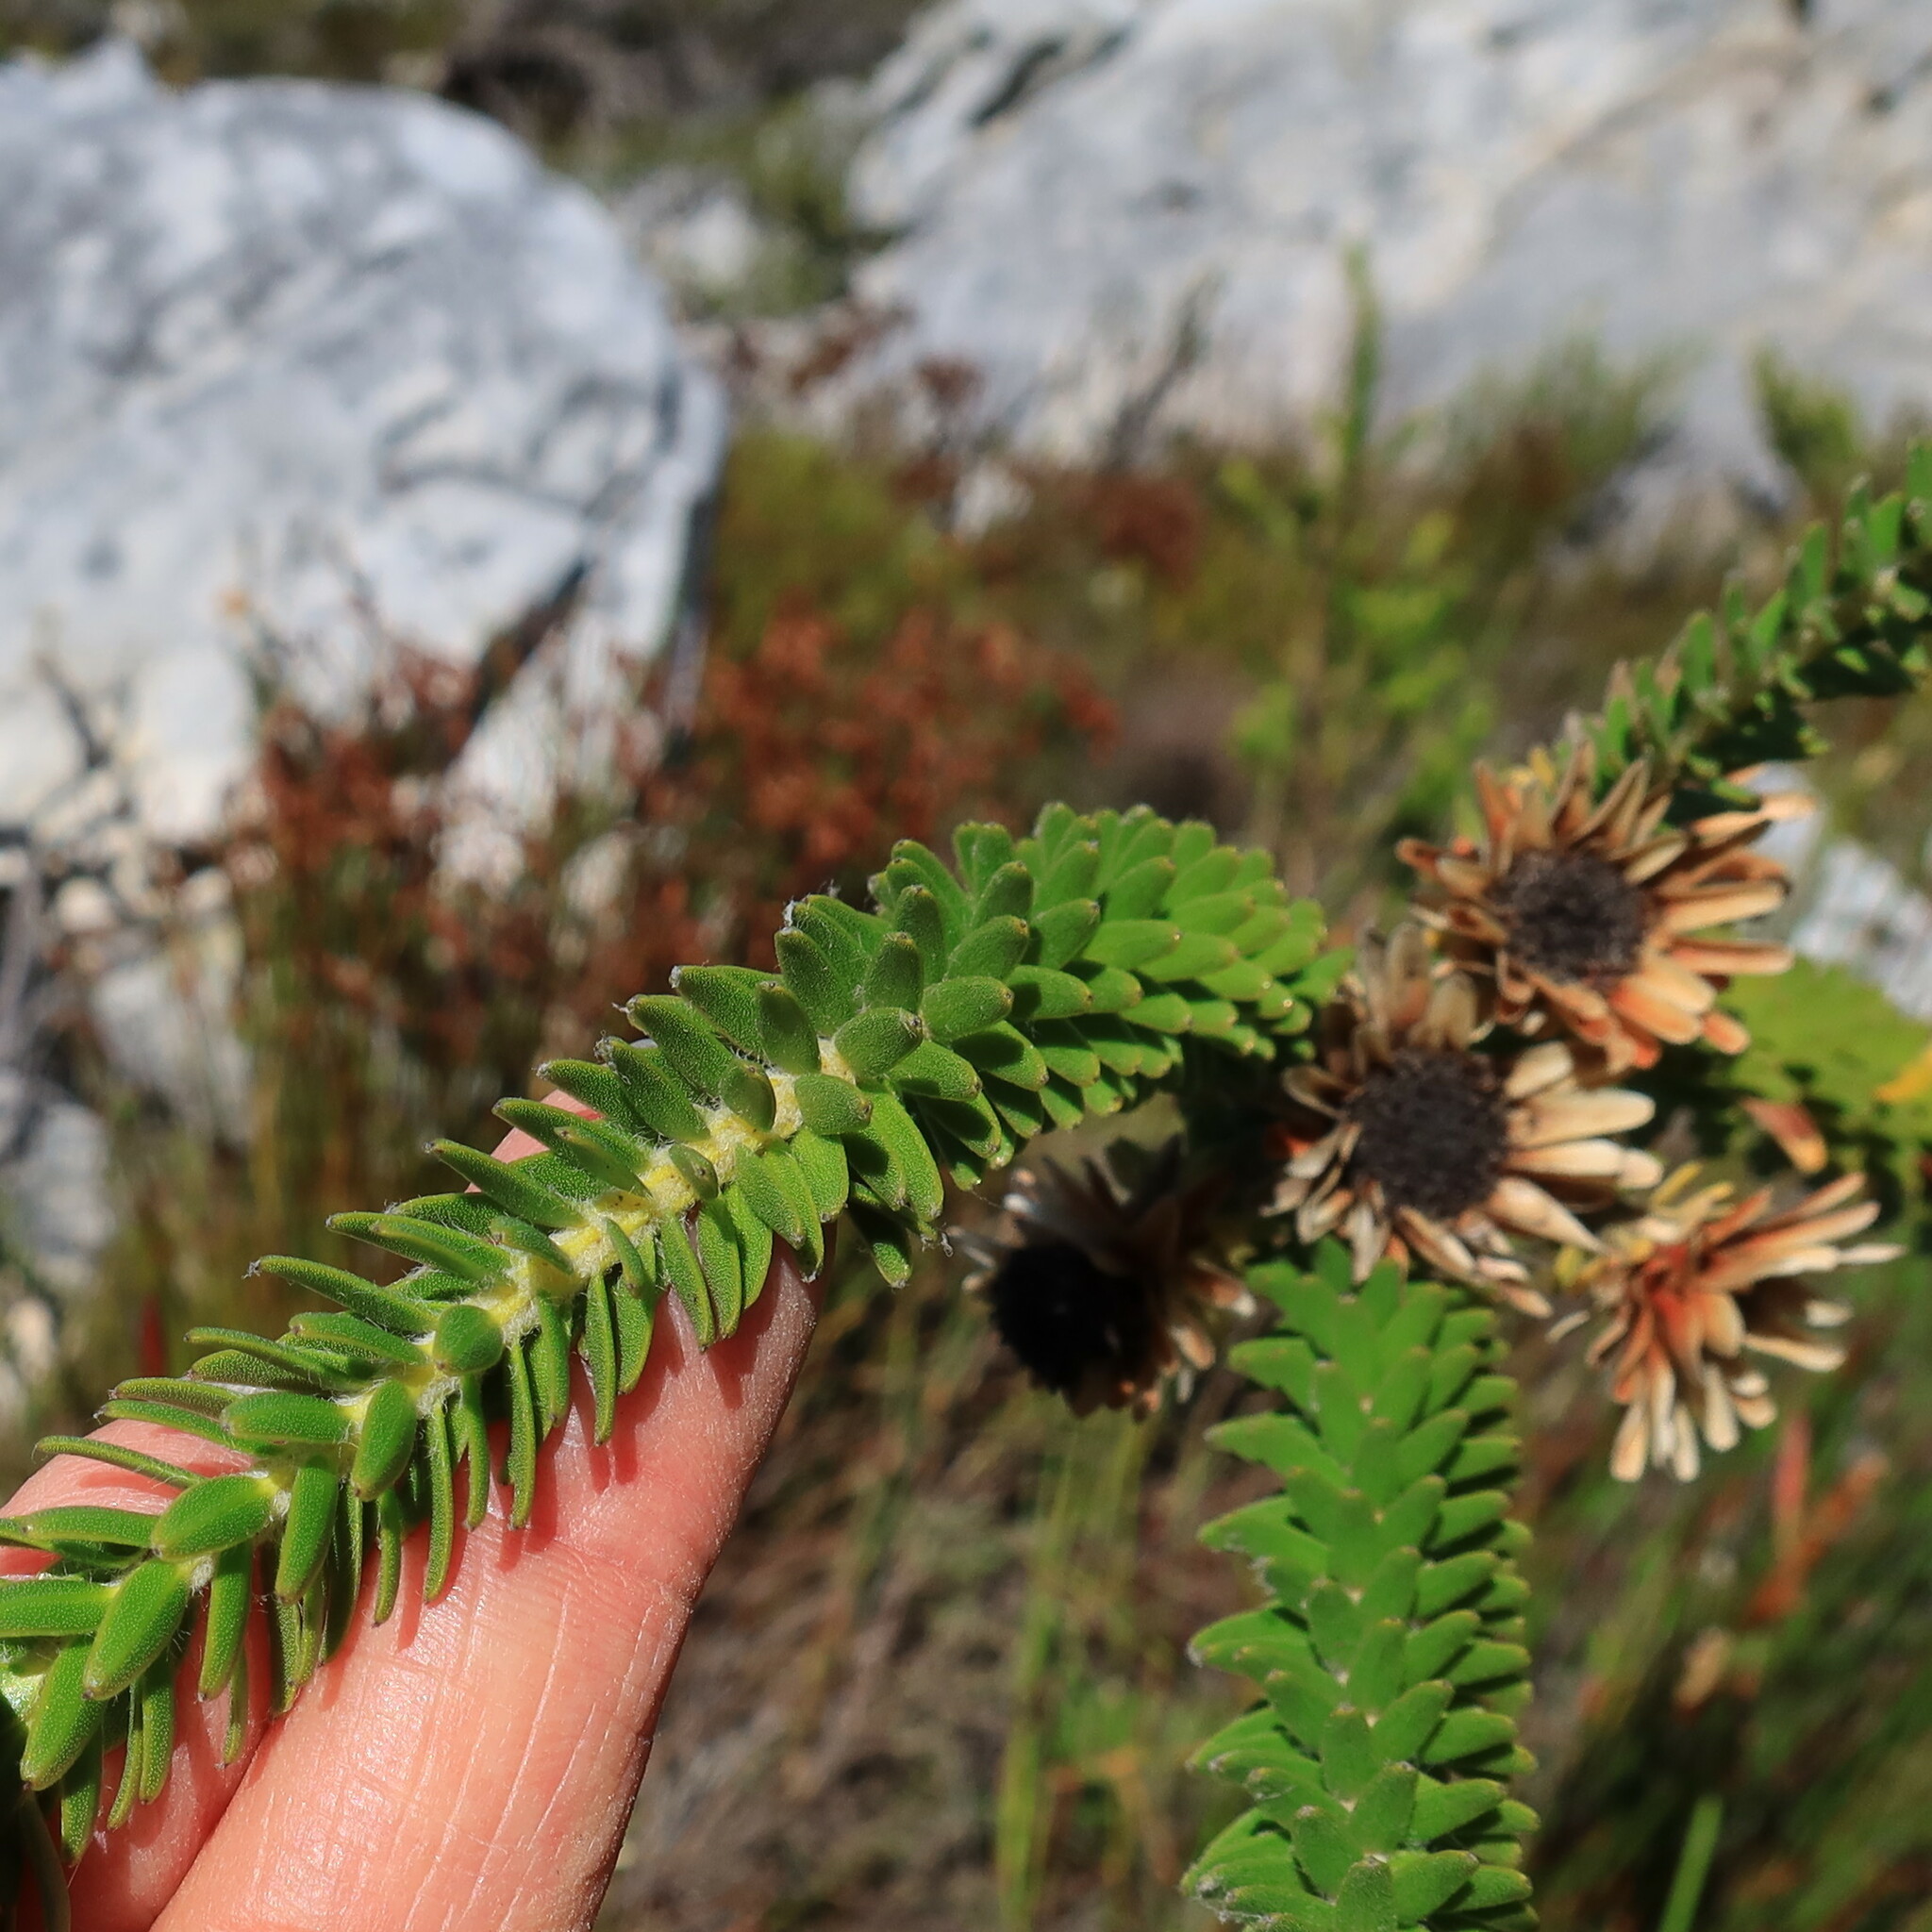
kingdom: Plantae
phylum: Tracheophyta
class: Magnoliopsida
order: Bruniales
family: Bruniaceae
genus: Staavia
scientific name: Staavia dodii
